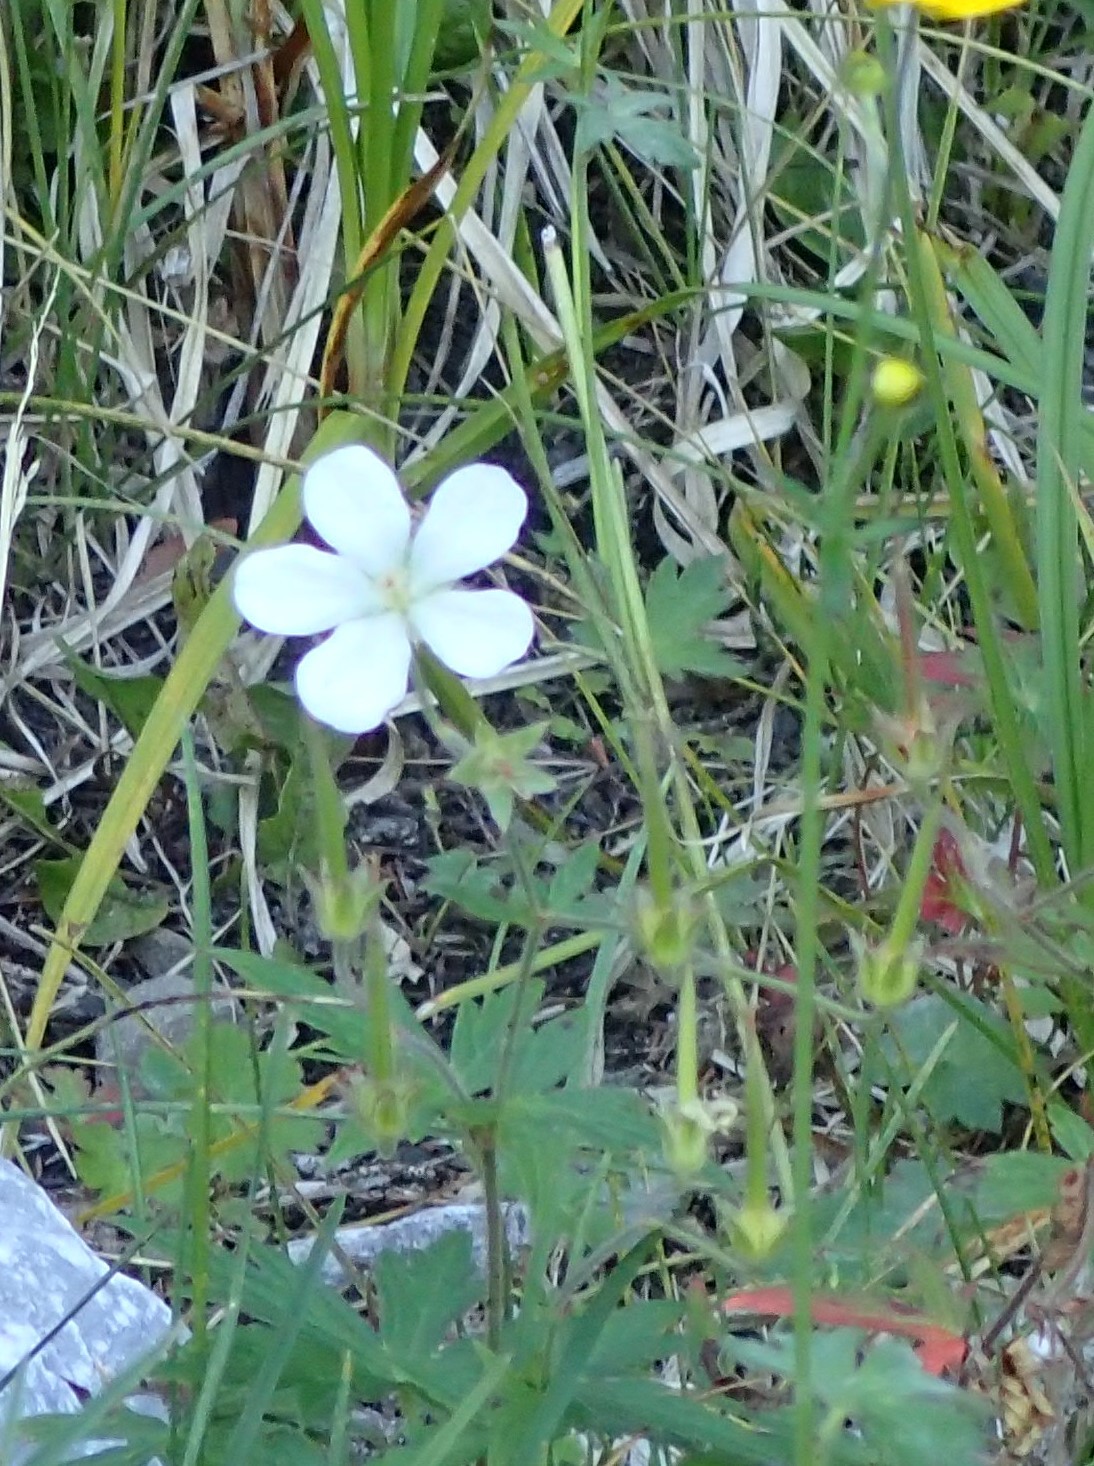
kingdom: Plantae
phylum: Tracheophyta
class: Magnoliopsida
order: Geraniales
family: Geraniaceae
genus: Geranium
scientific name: Geranium richardsonii
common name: Richardson's crane's-bill
